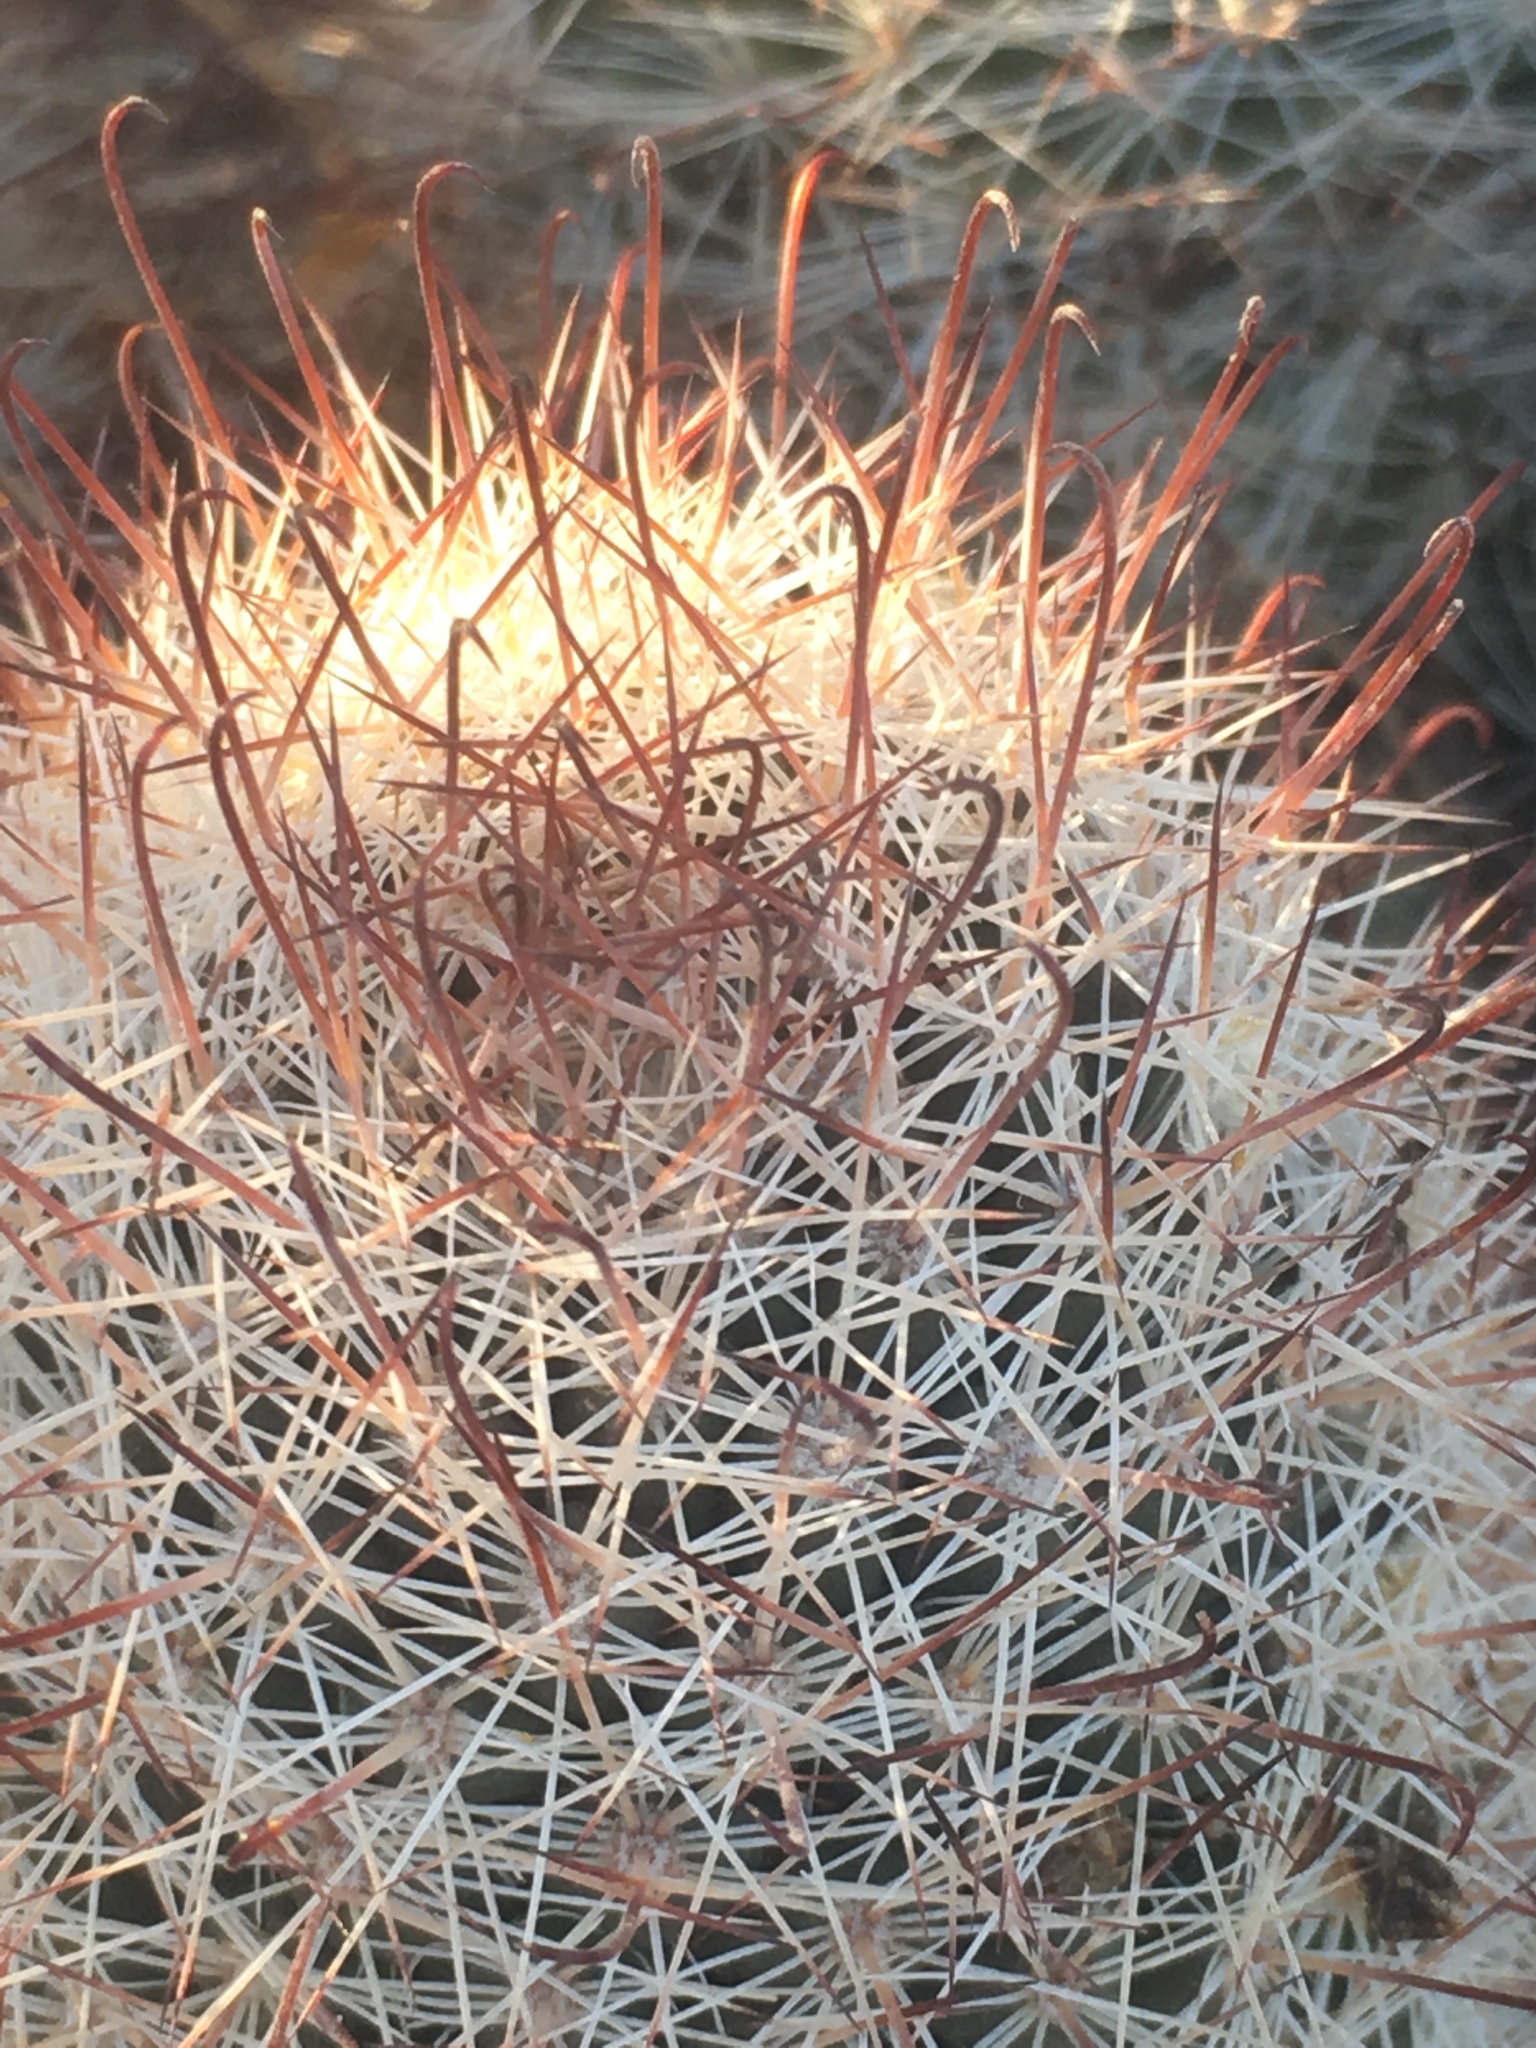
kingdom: Plantae
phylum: Tracheophyta
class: Magnoliopsida
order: Caryophyllales
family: Cactaceae
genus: Cochemiea
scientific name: Cochemiea dioica
